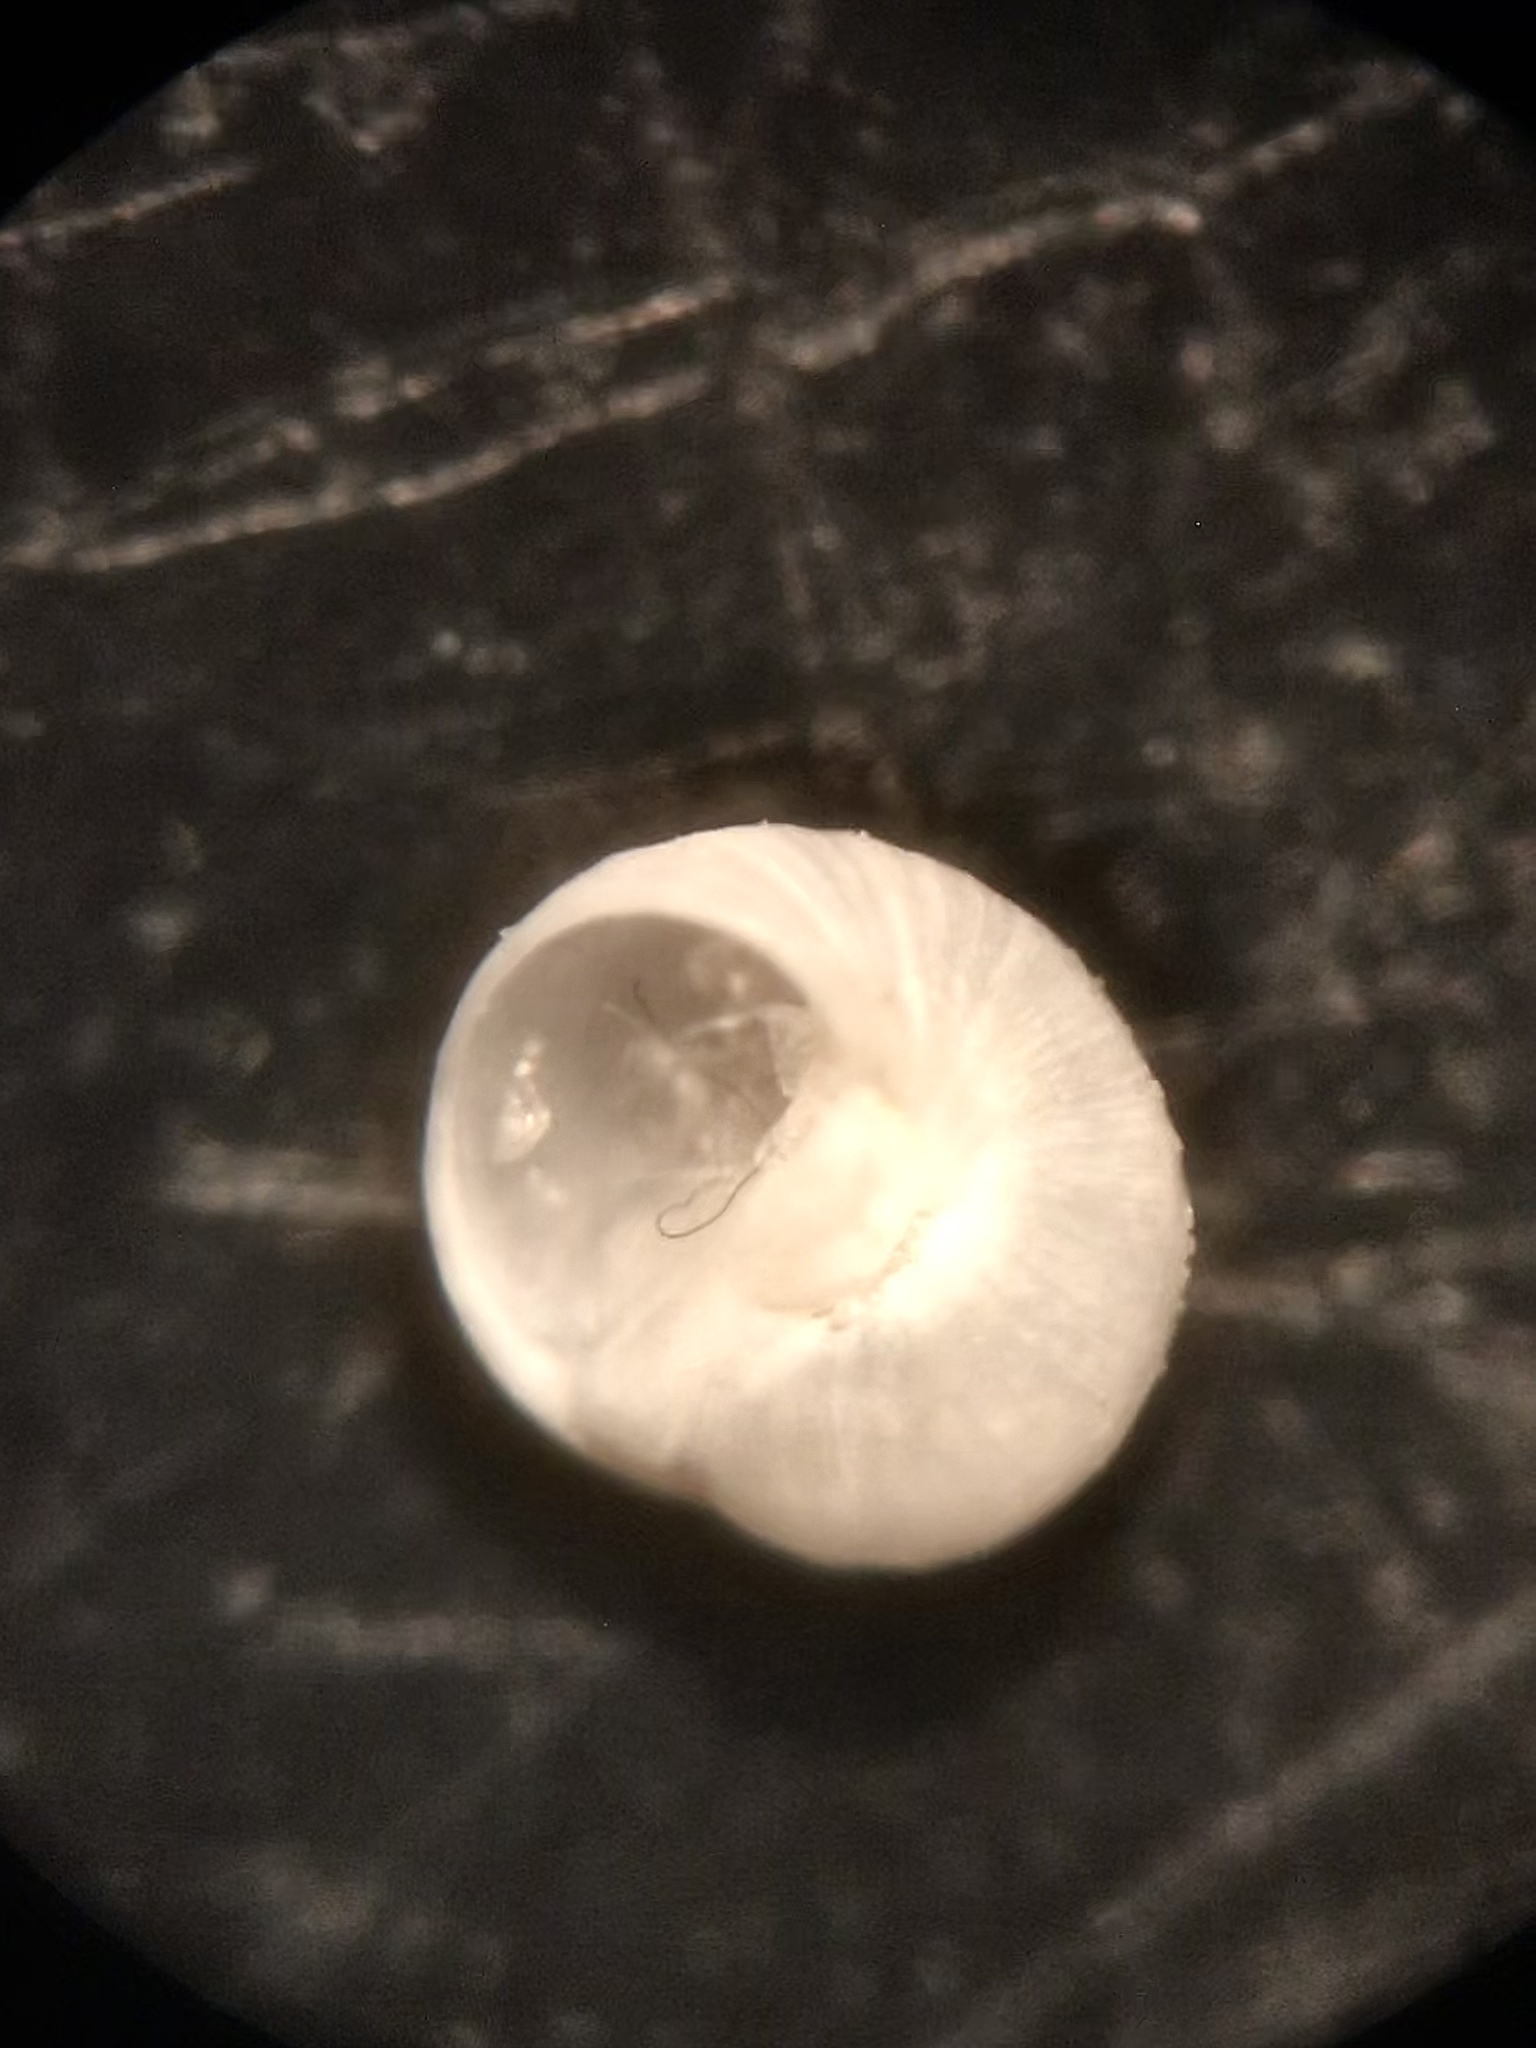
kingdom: Animalia
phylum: Mollusca
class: Gastropoda
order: Littorinimorpha
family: Naticidae
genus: Tectonatica
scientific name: Tectonatica pusilla
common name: Miniature moonsnail
